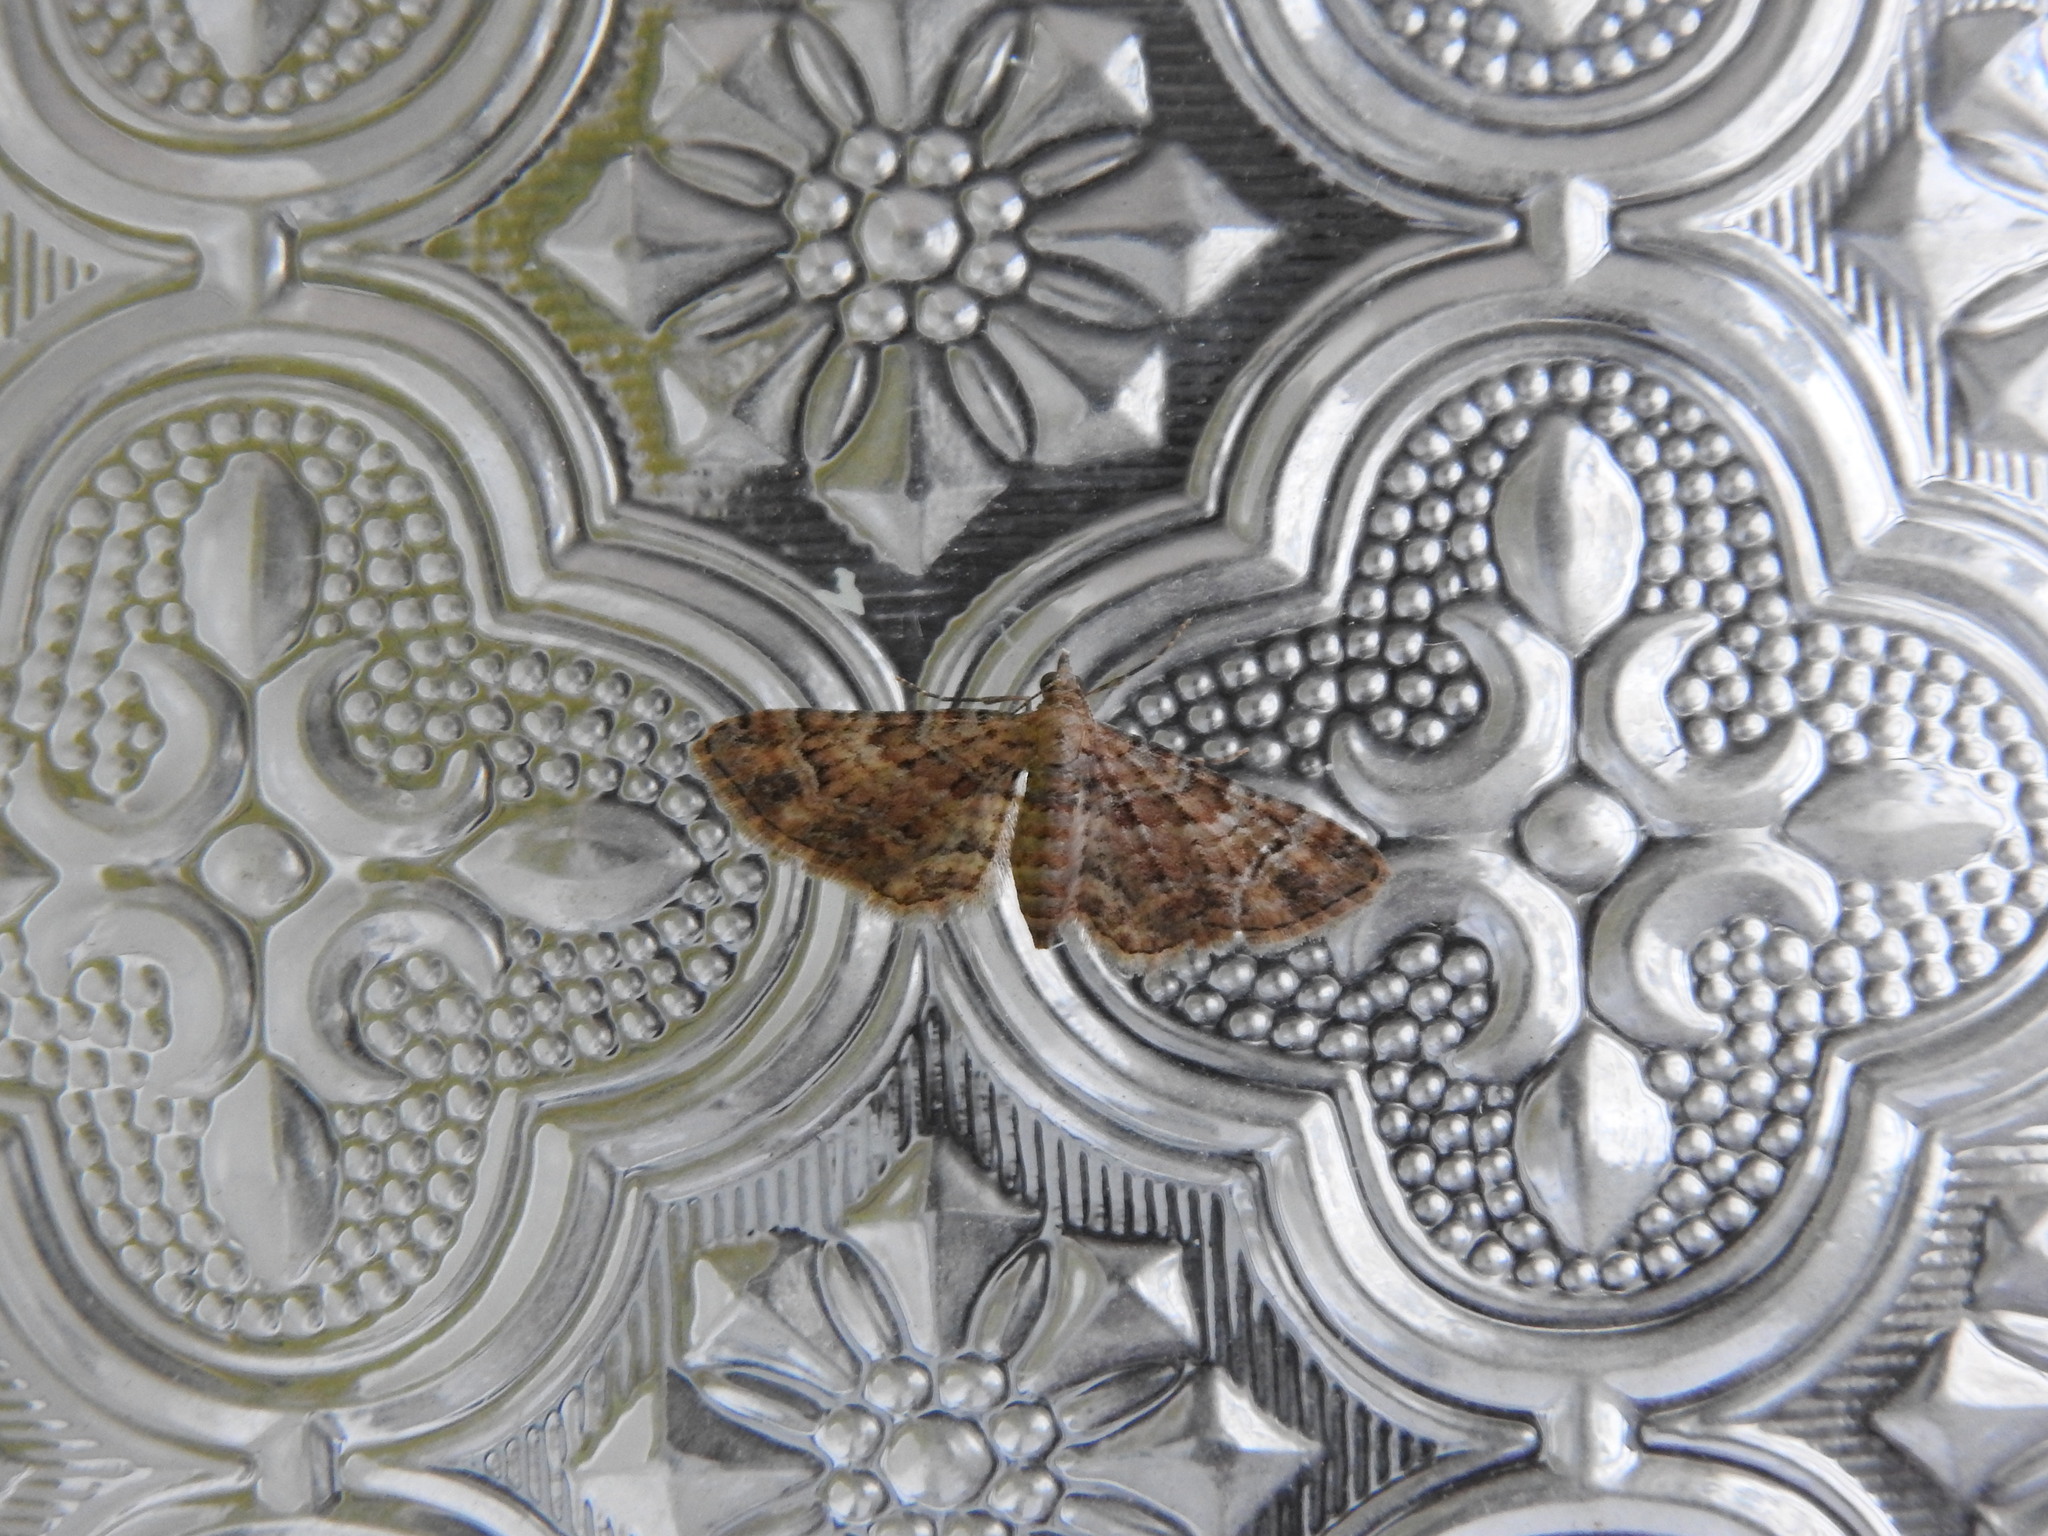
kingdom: Animalia
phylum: Arthropoda
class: Insecta
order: Lepidoptera
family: Geometridae
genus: Gymnoscelis
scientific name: Gymnoscelis rufifasciata
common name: Double-striped pug
